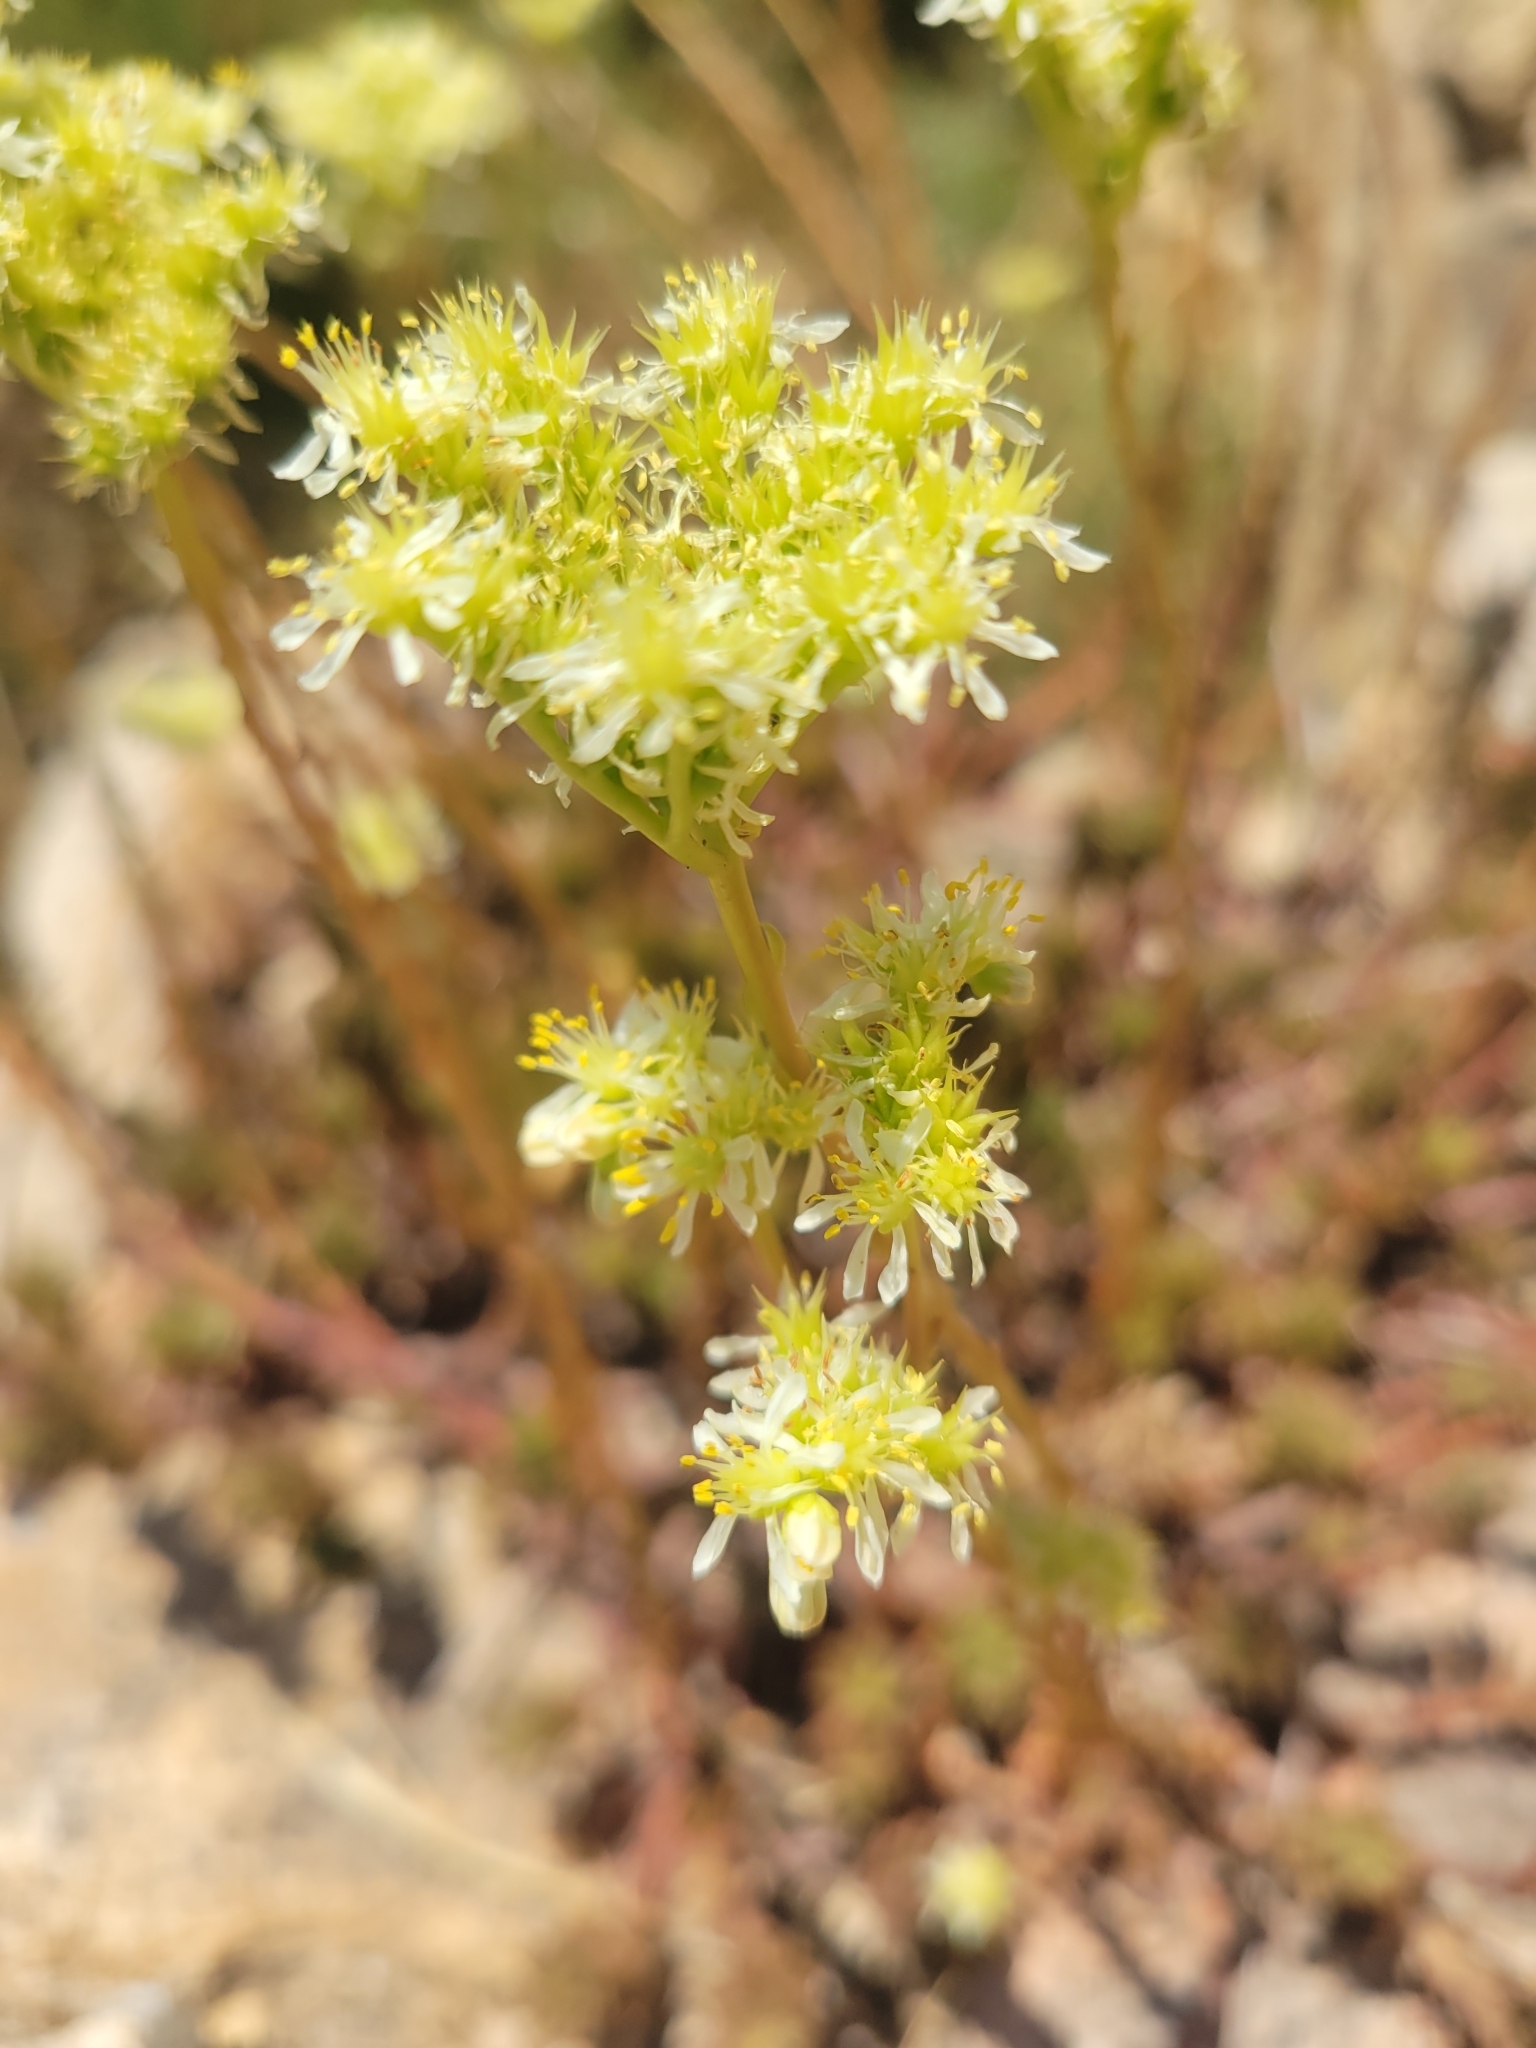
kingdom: Plantae
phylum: Tracheophyta
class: Magnoliopsida
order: Saxifragales
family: Crassulaceae
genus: Petrosedum
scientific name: Petrosedum sediforme
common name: Pale stonecrop
